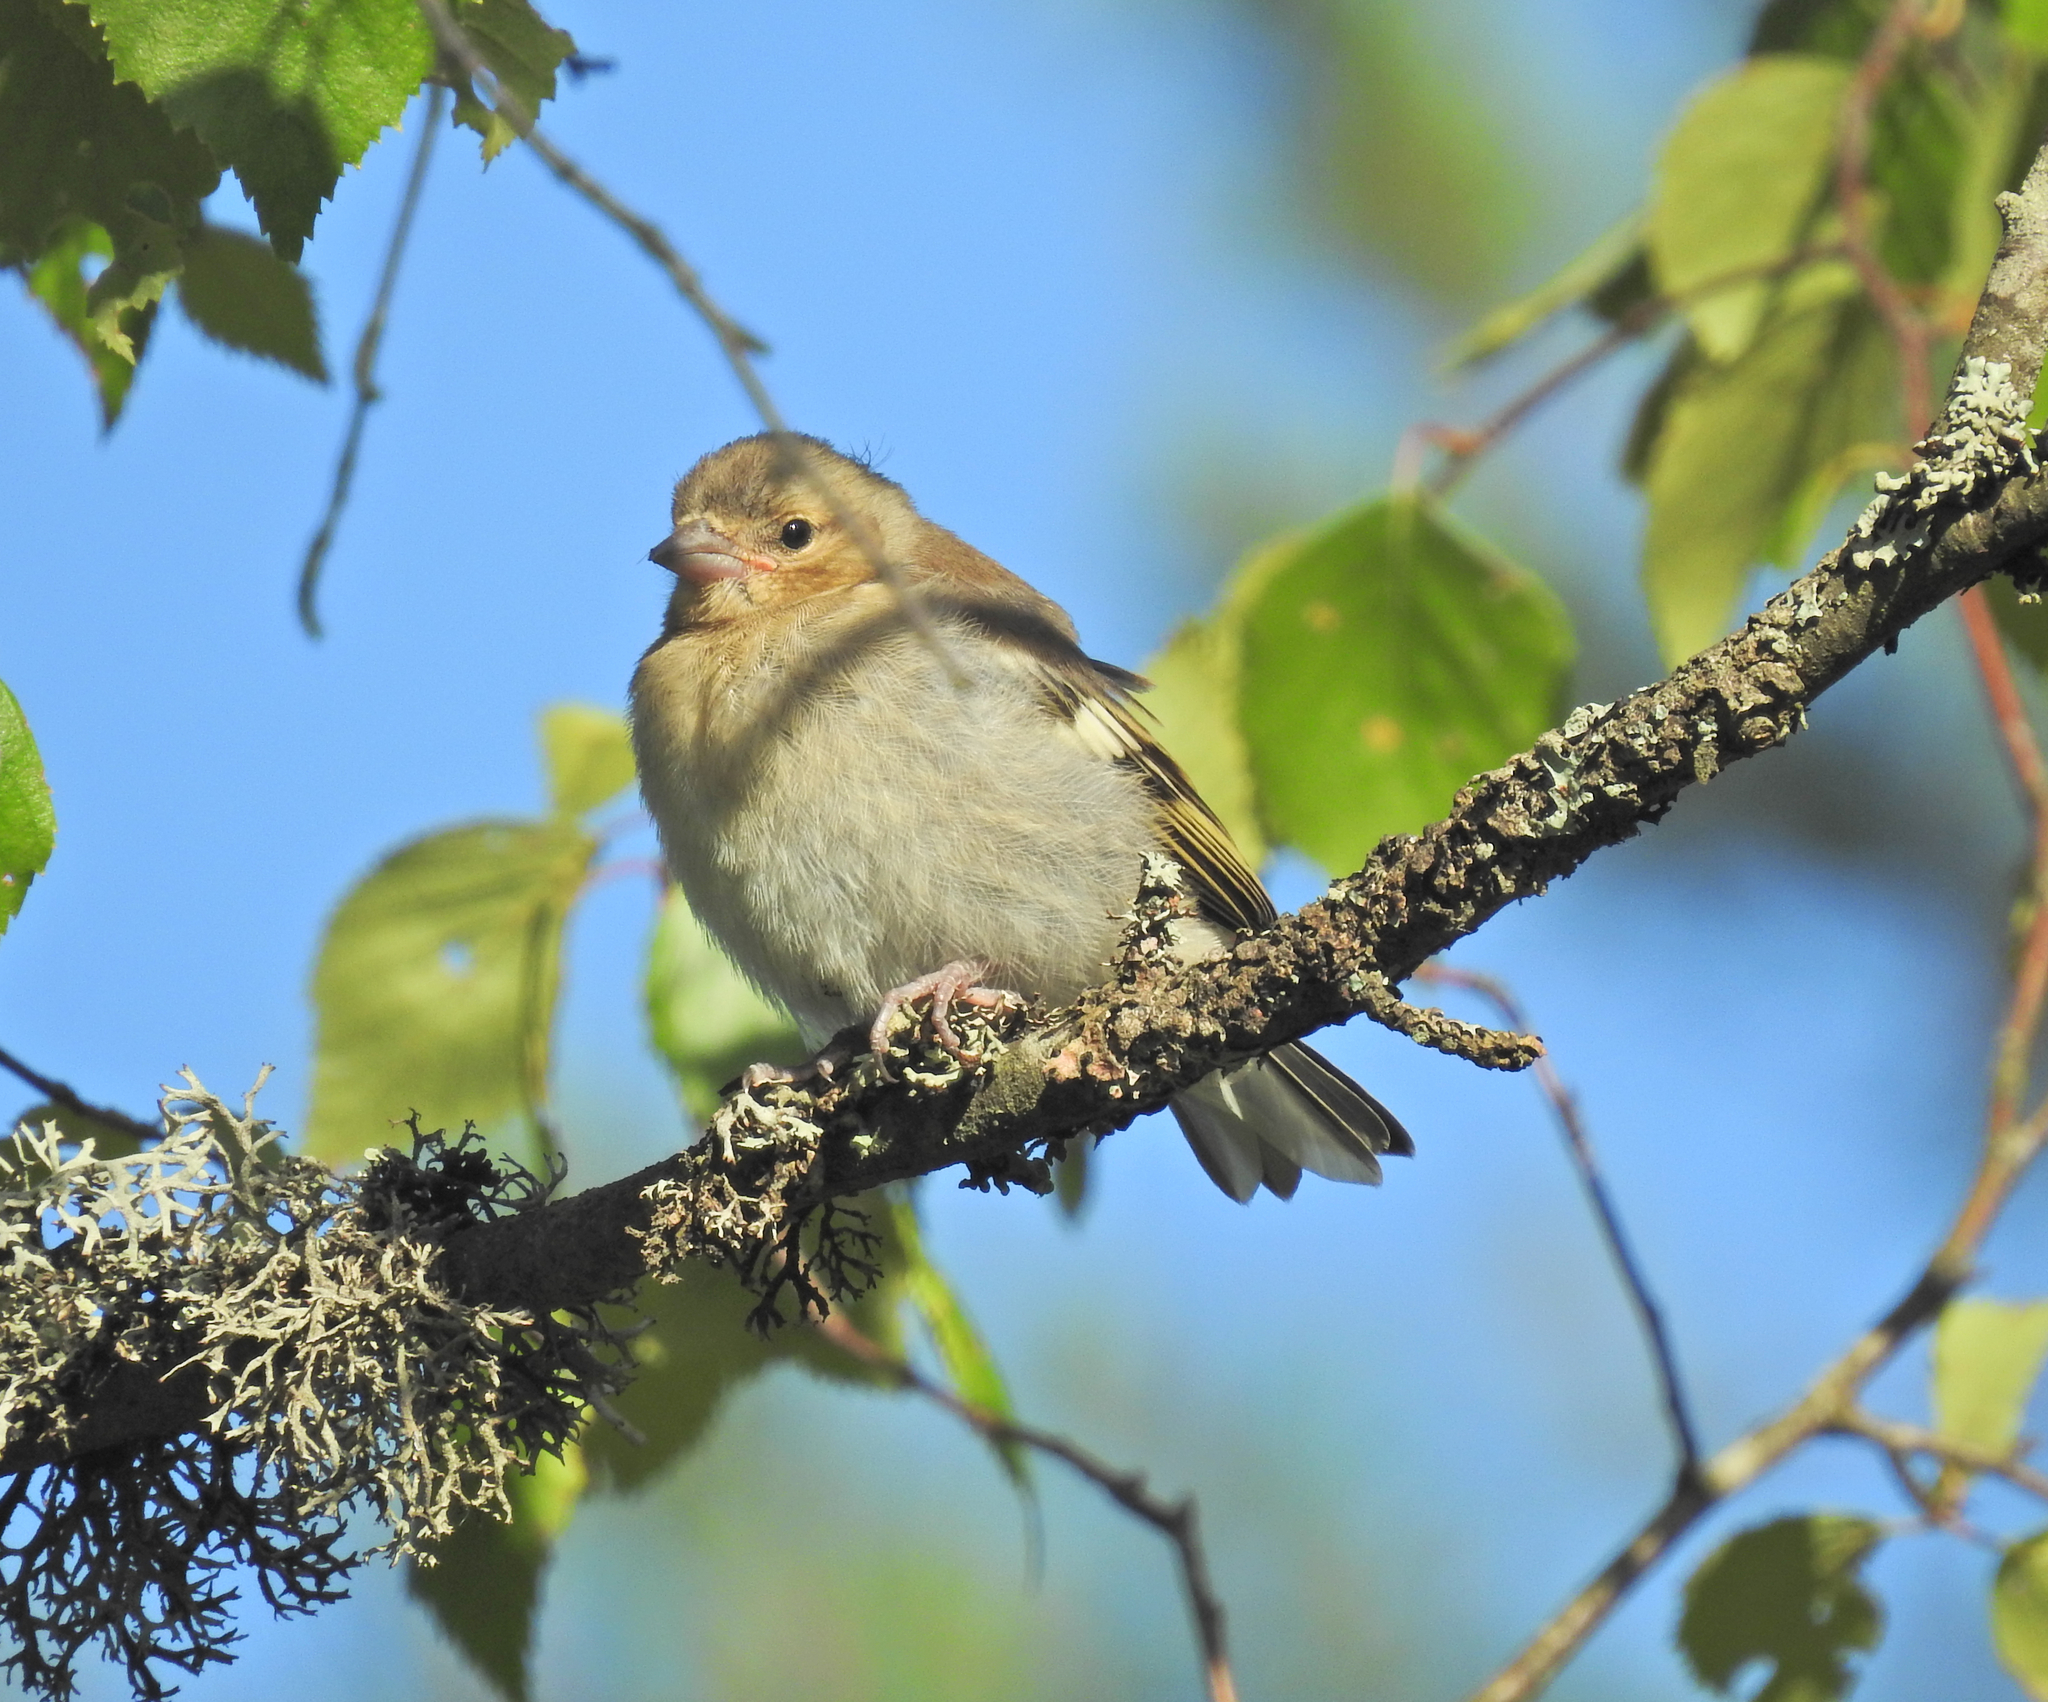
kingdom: Animalia
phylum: Chordata
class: Aves
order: Passeriformes
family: Fringillidae
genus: Fringilla
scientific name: Fringilla coelebs
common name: Common chaffinch
